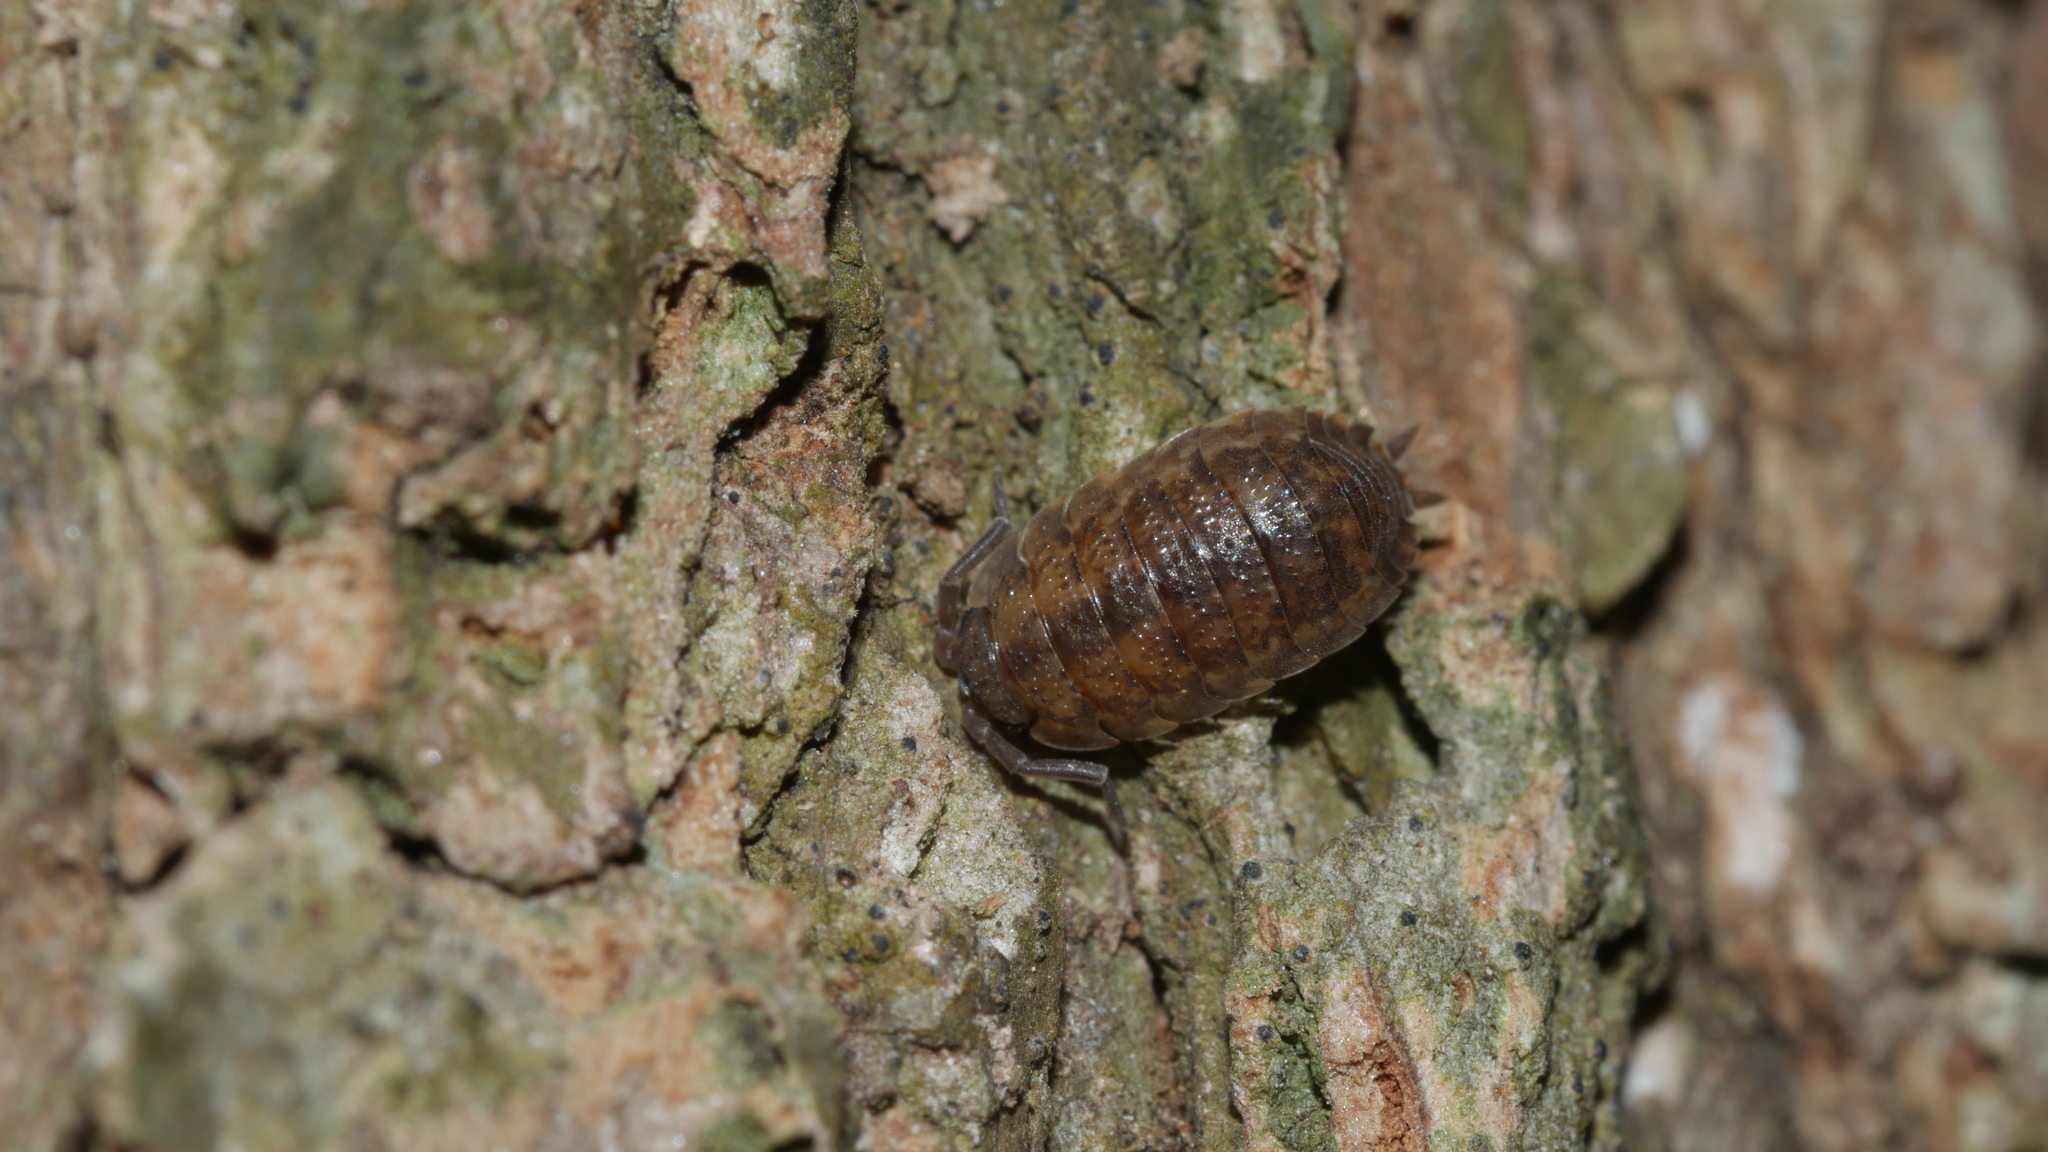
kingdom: Animalia
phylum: Arthropoda
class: Malacostraca
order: Isopoda
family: Porcellionidae
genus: Porcellio
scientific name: Porcellio scaber
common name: Common rough woodlouse
